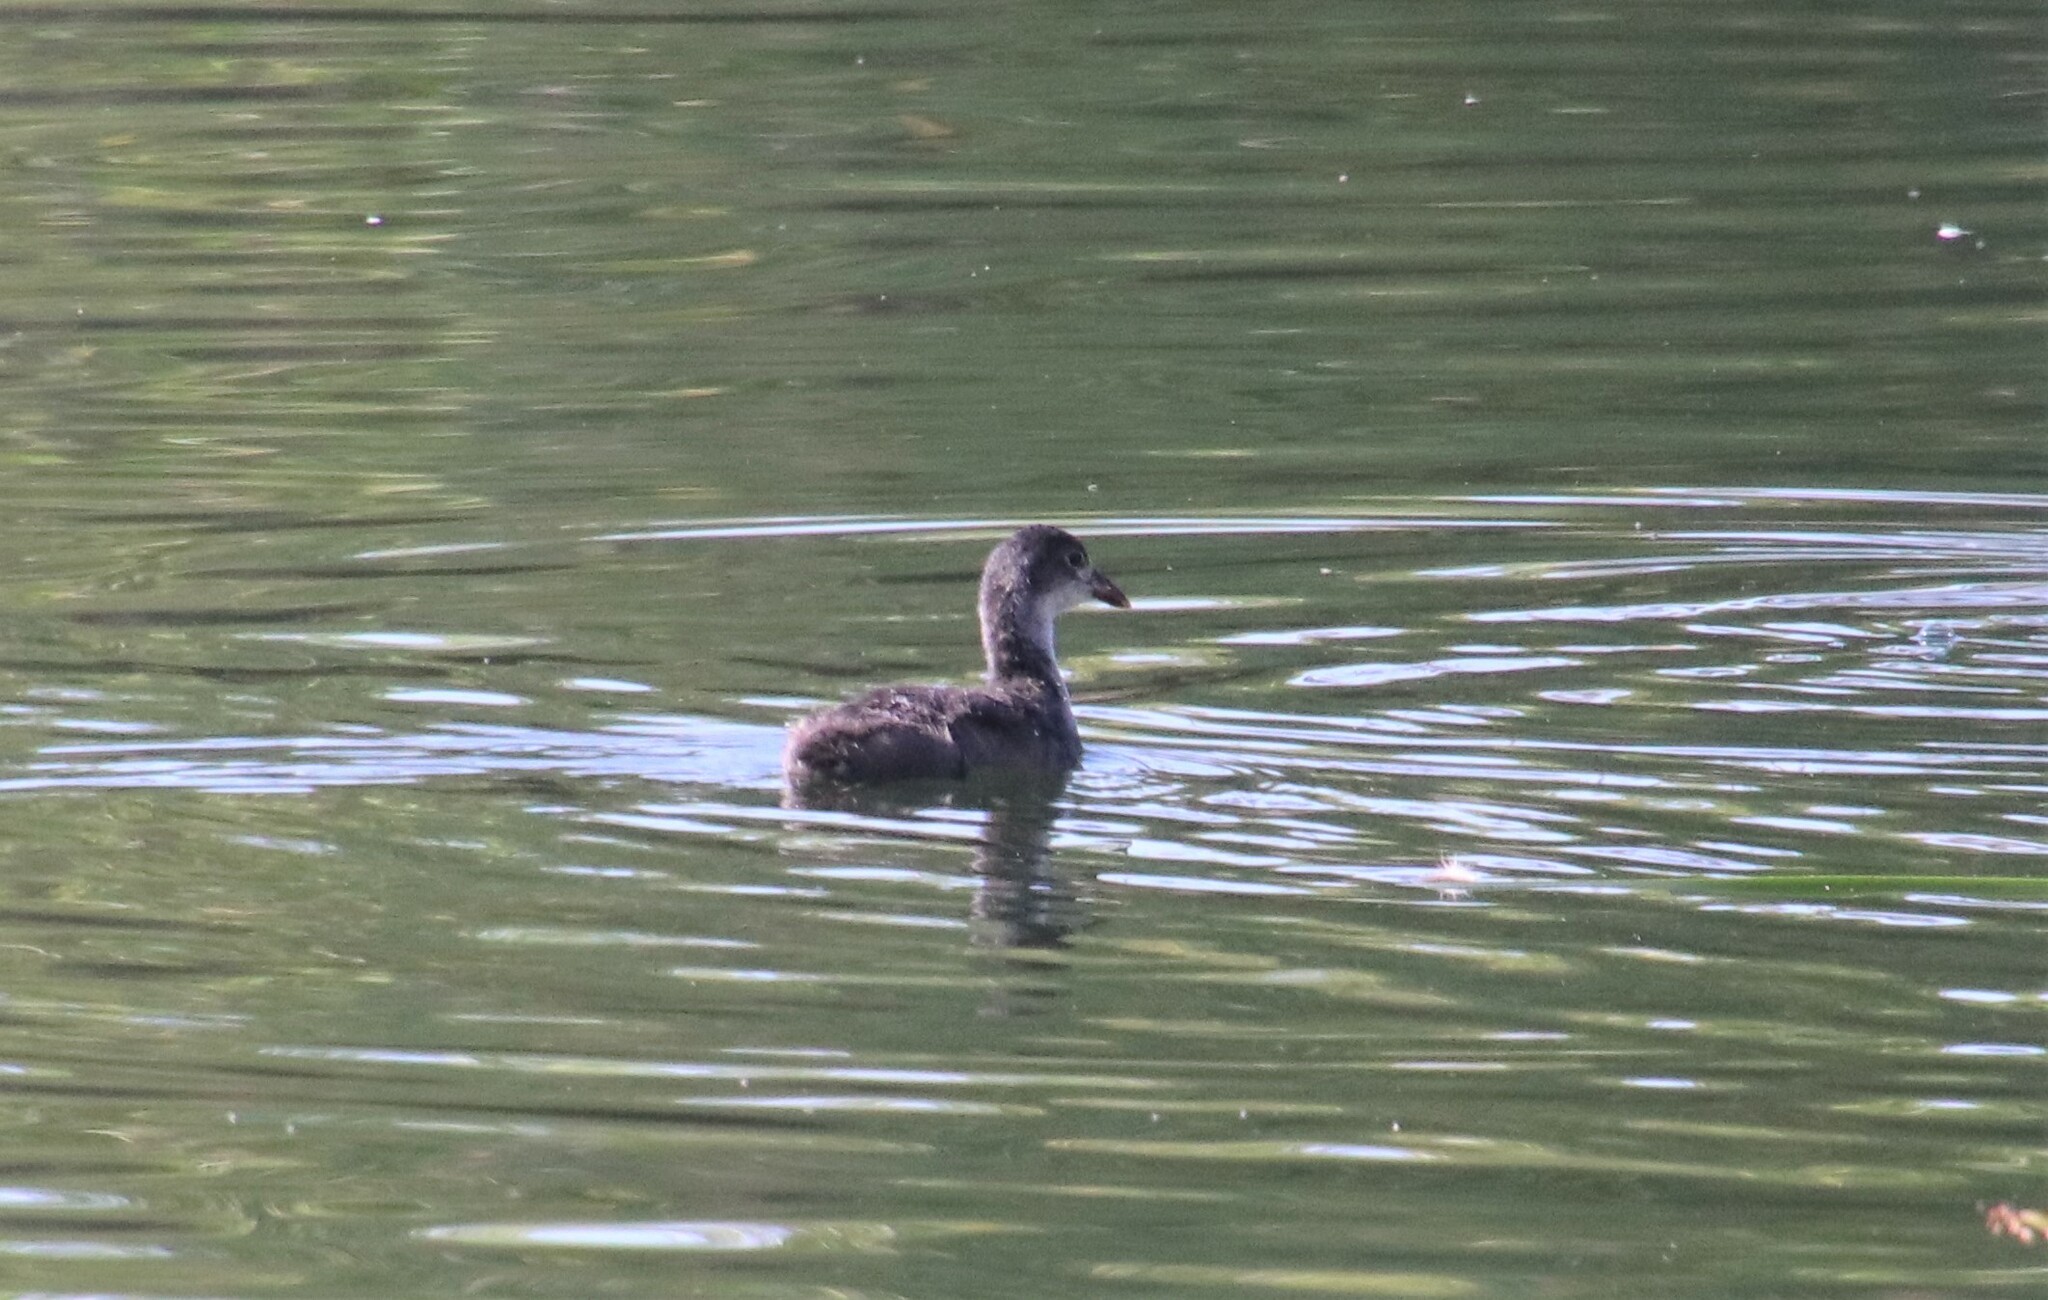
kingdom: Animalia
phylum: Chordata
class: Aves
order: Gruiformes
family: Rallidae
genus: Fulica
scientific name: Fulica americana
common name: American coot
